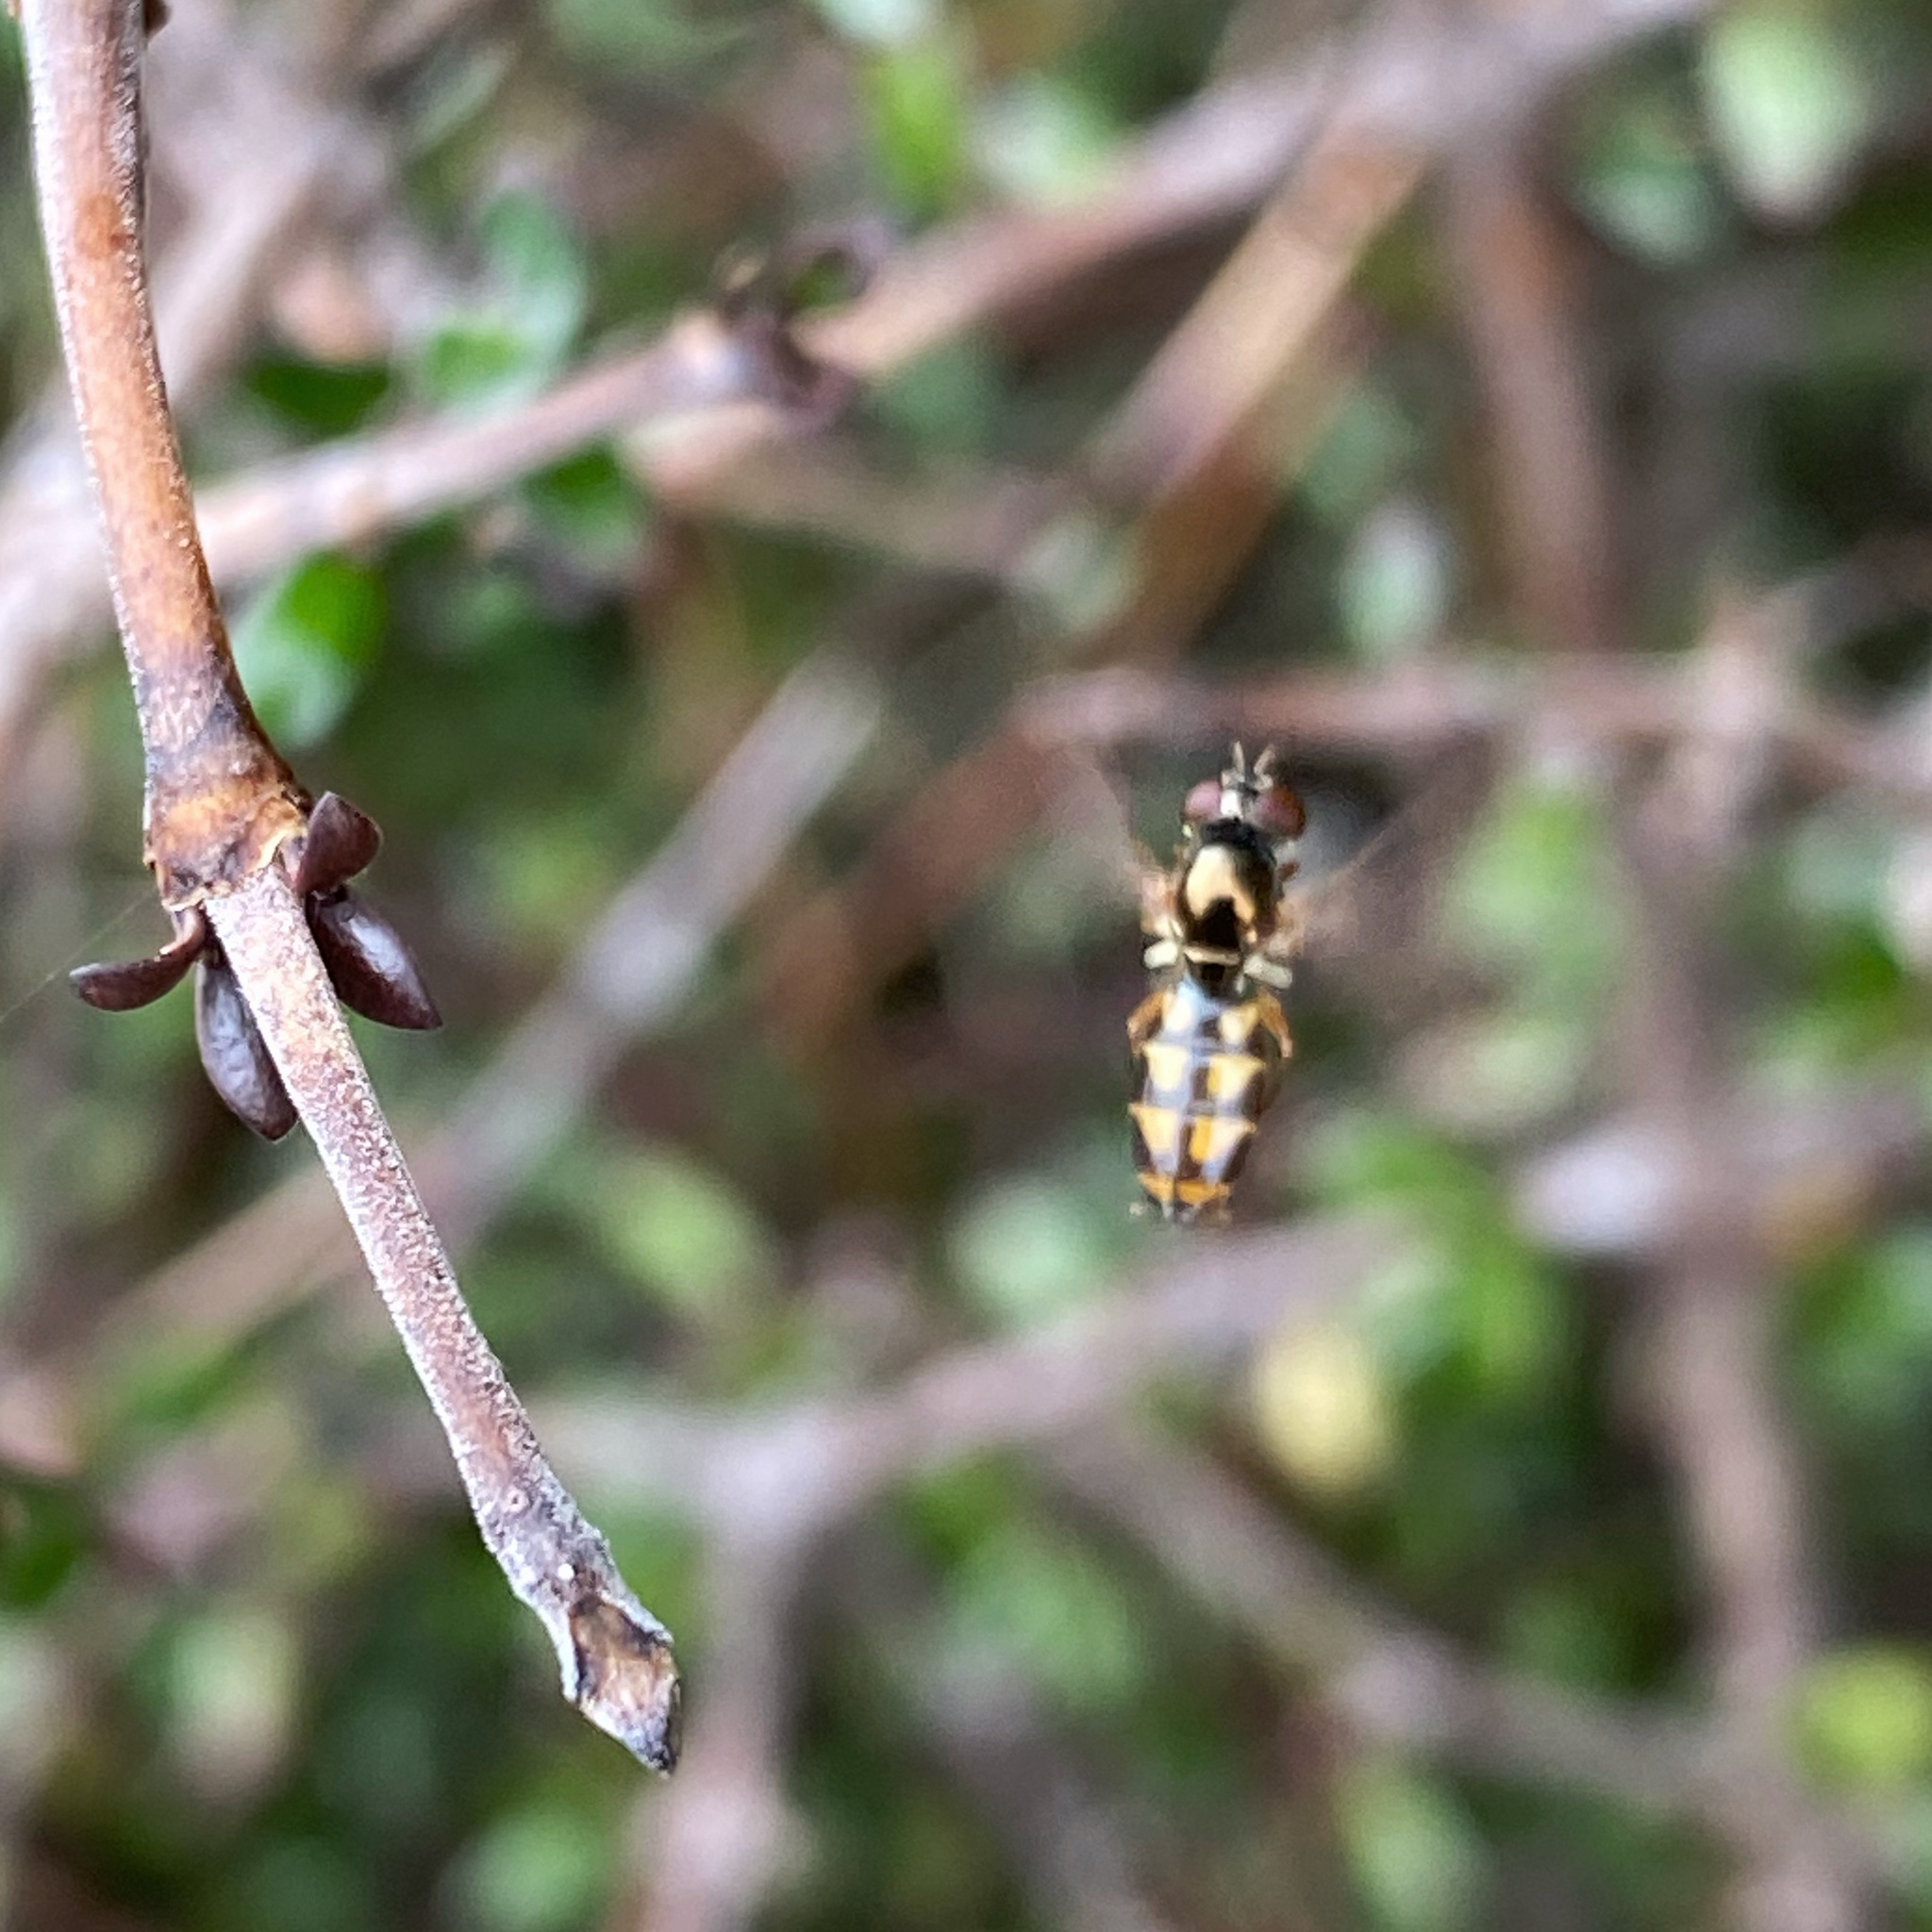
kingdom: Animalia
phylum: Arthropoda
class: Insecta
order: Diptera
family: Syrphidae
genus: Melanostoma
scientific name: Melanostoma fasciatum
